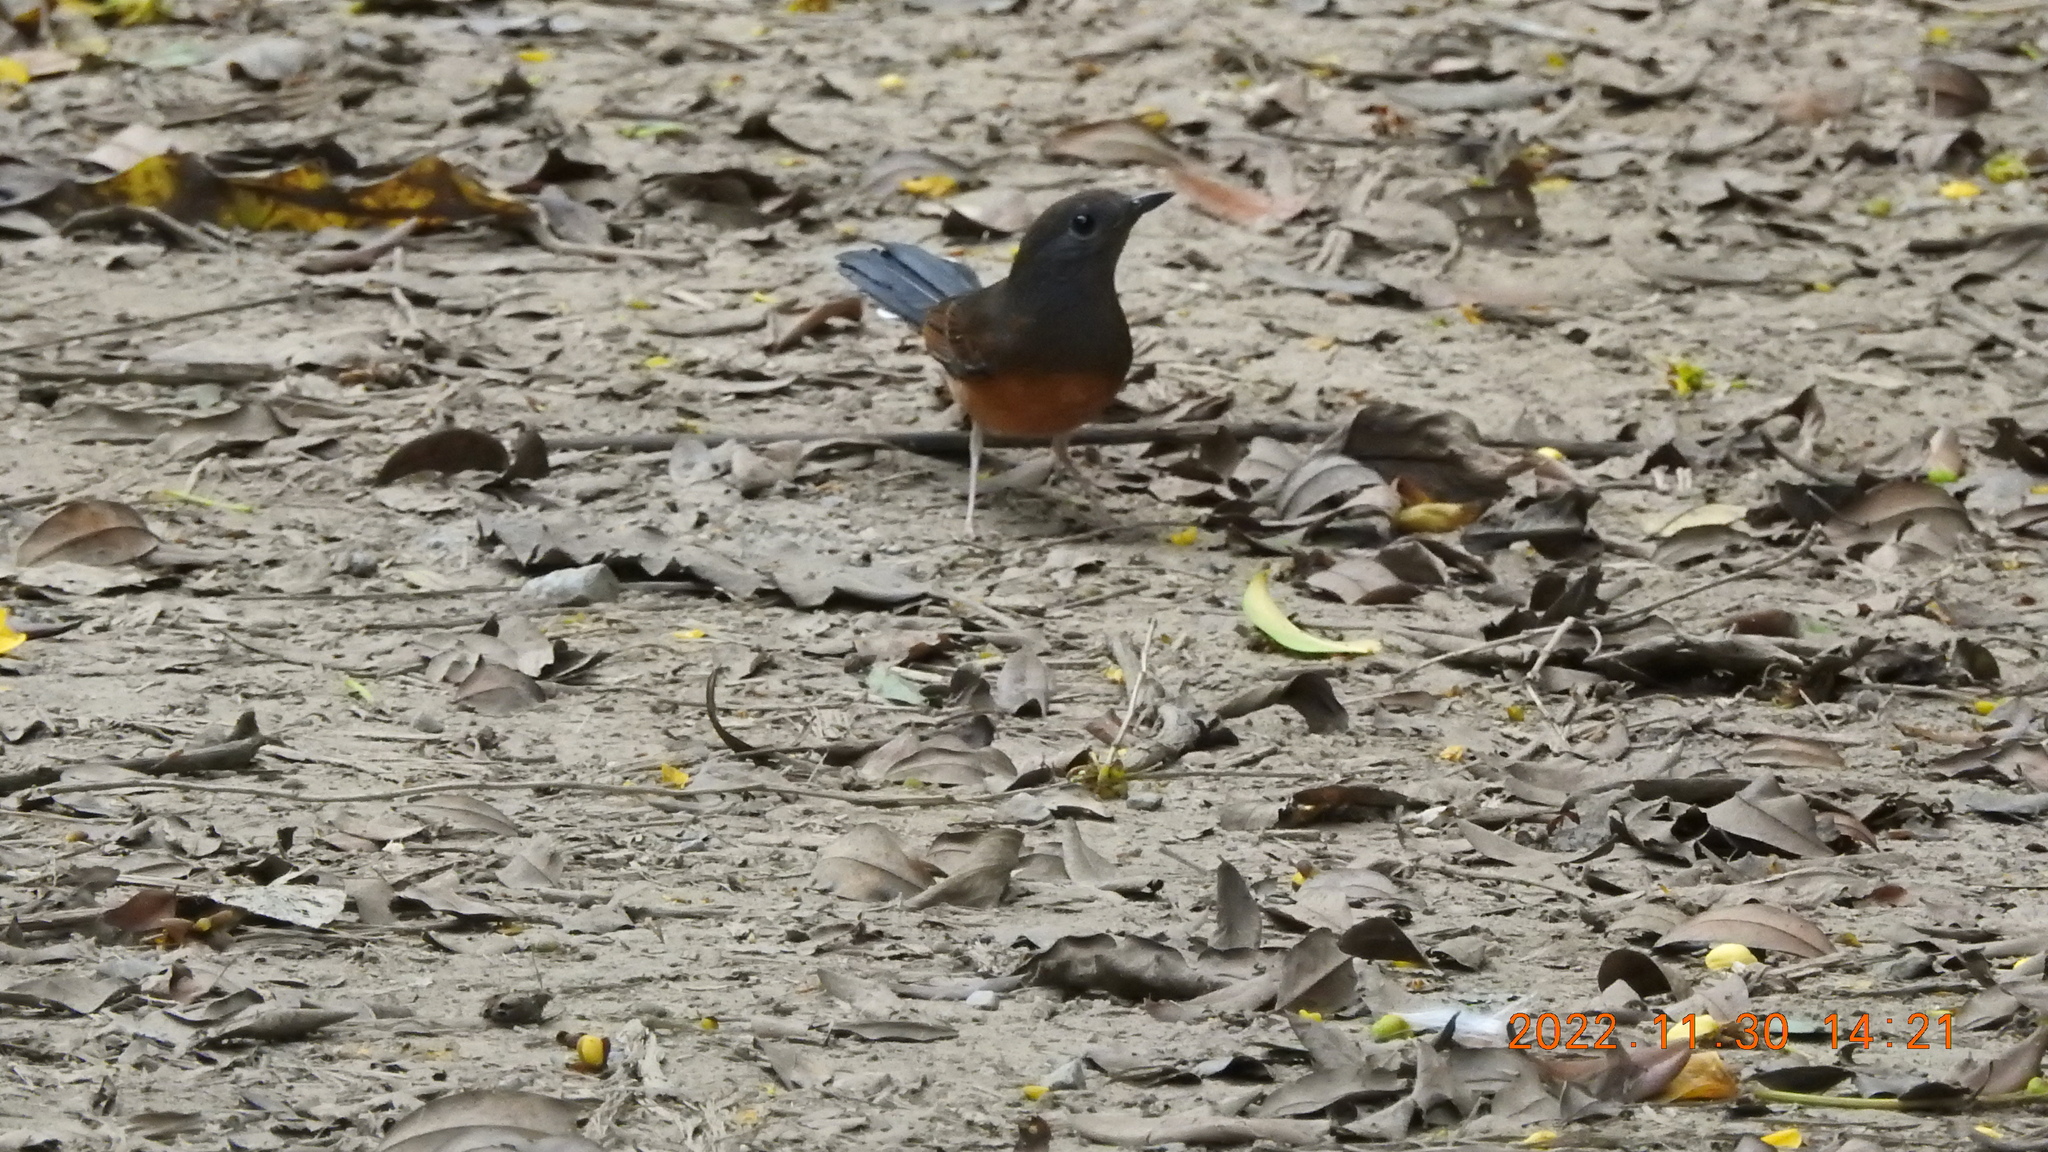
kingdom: Animalia
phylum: Chordata
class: Aves
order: Passeriformes
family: Muscicapidae
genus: Copsychus
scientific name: Copsychus malabaricus
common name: White-rumped shama
